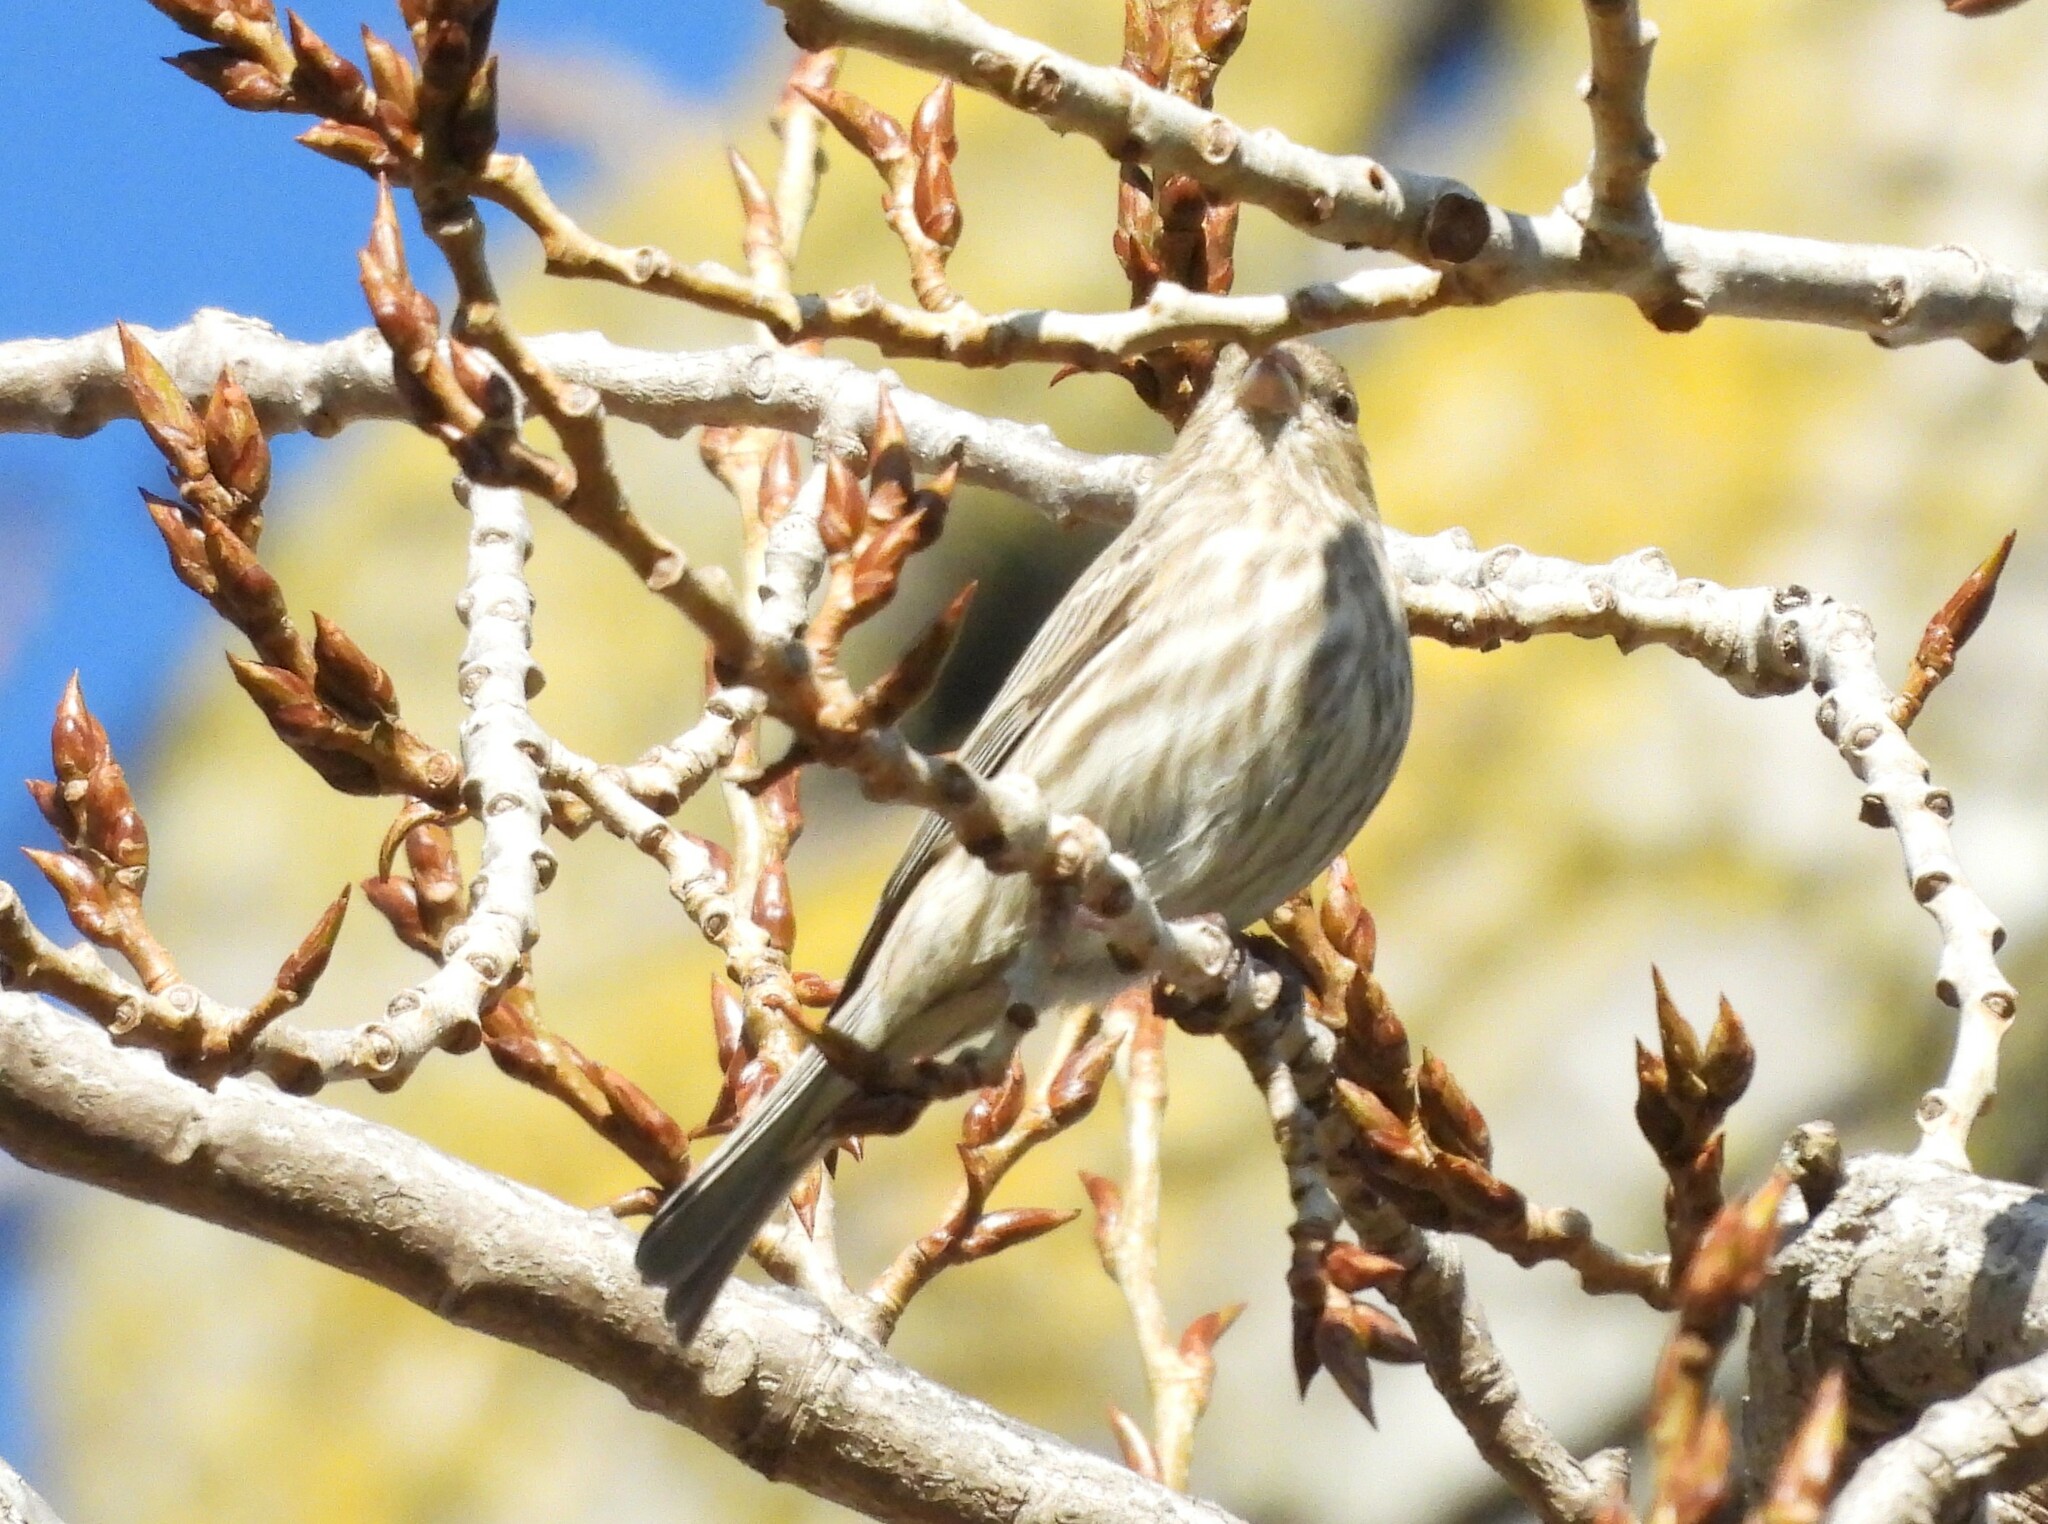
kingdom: Animalia
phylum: Chordata
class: Aves
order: Passeriformes
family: Fringillidae
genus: Haemorhous
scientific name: Haemorhous mexicanus
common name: House finch
